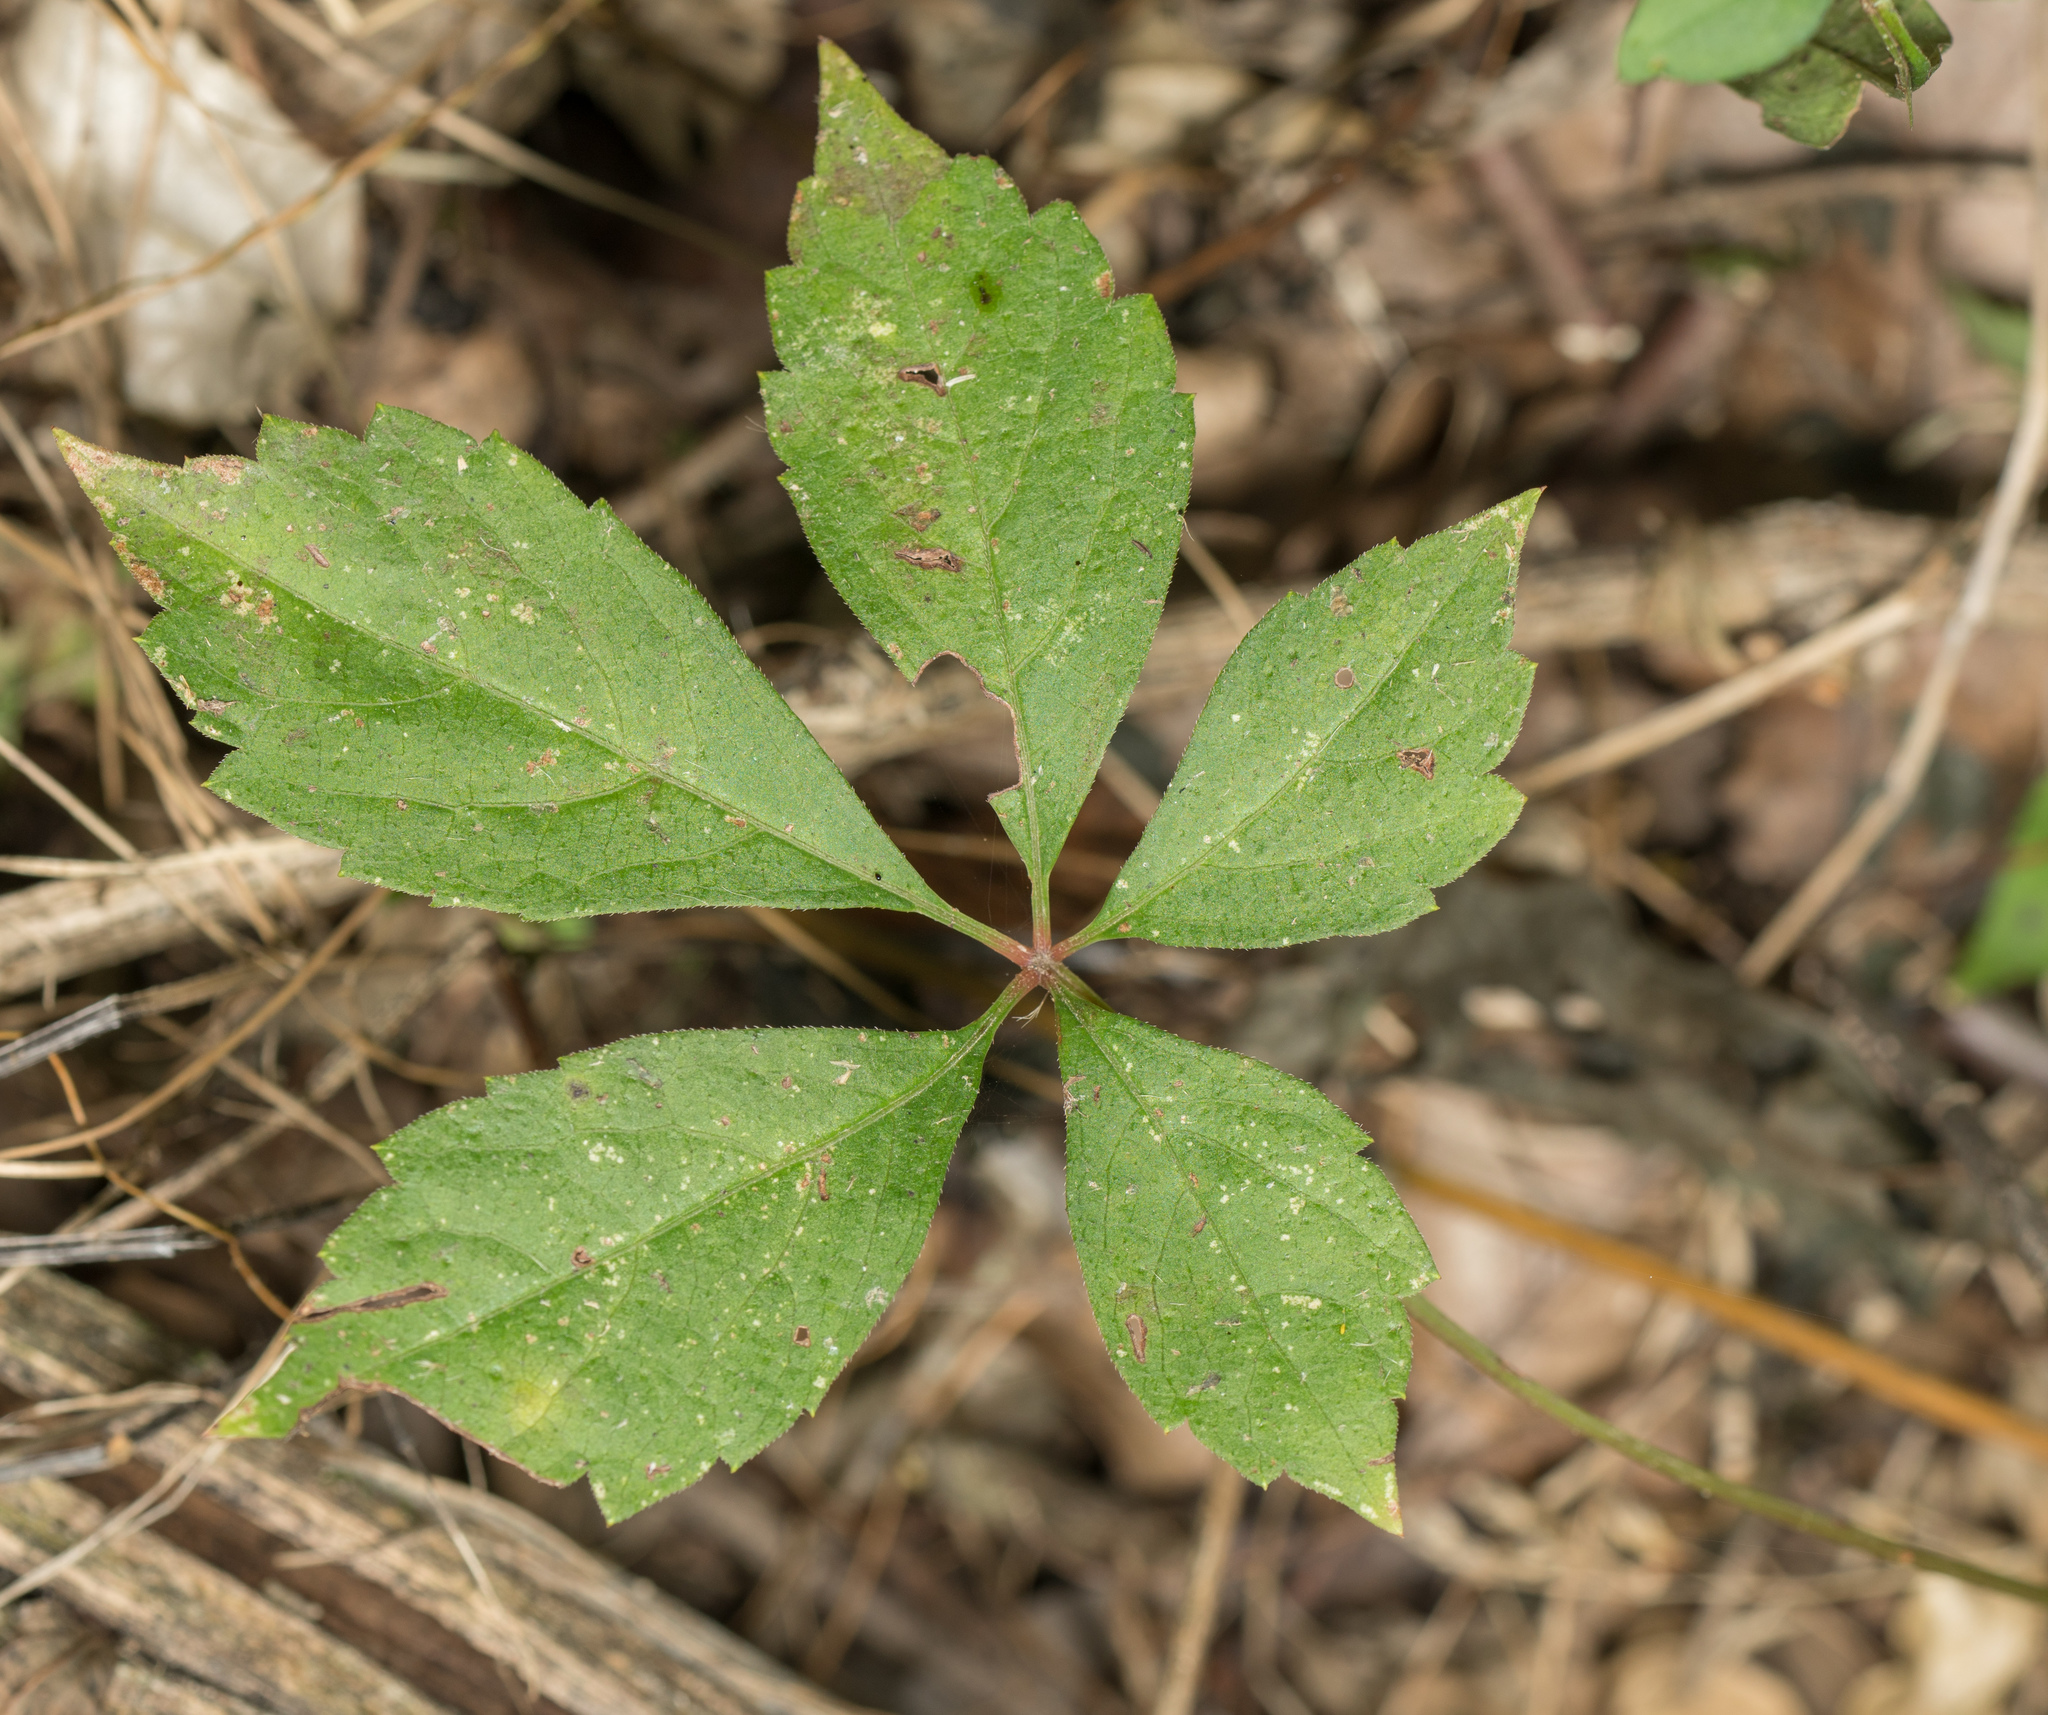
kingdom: Plantae
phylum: Tracheophyta
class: Magnoliopsida
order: Vitales
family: Vitaceae
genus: Parthenocissus
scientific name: Parthenocissus quinquefolia
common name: Virginia-creeper
